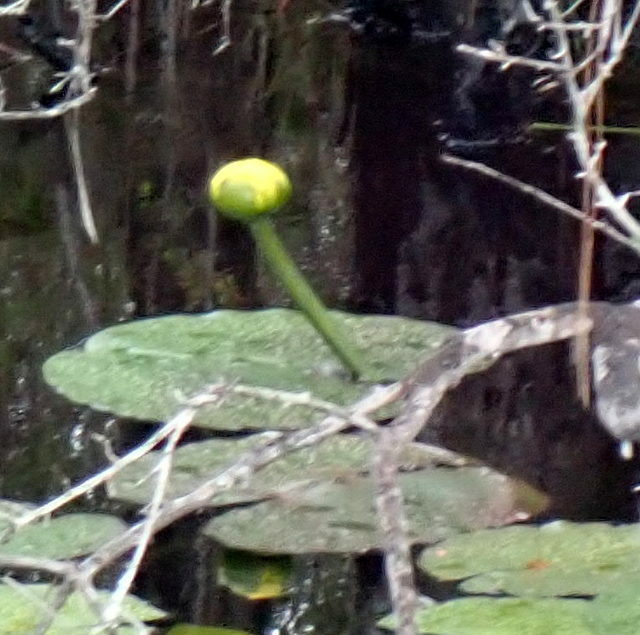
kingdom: Plantae
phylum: Tracheophyta
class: Magnoliopsida
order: Nymphaeales
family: Nymphaeaceae
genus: Nuphar
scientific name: Nuphar advena
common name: Spatter-dock
